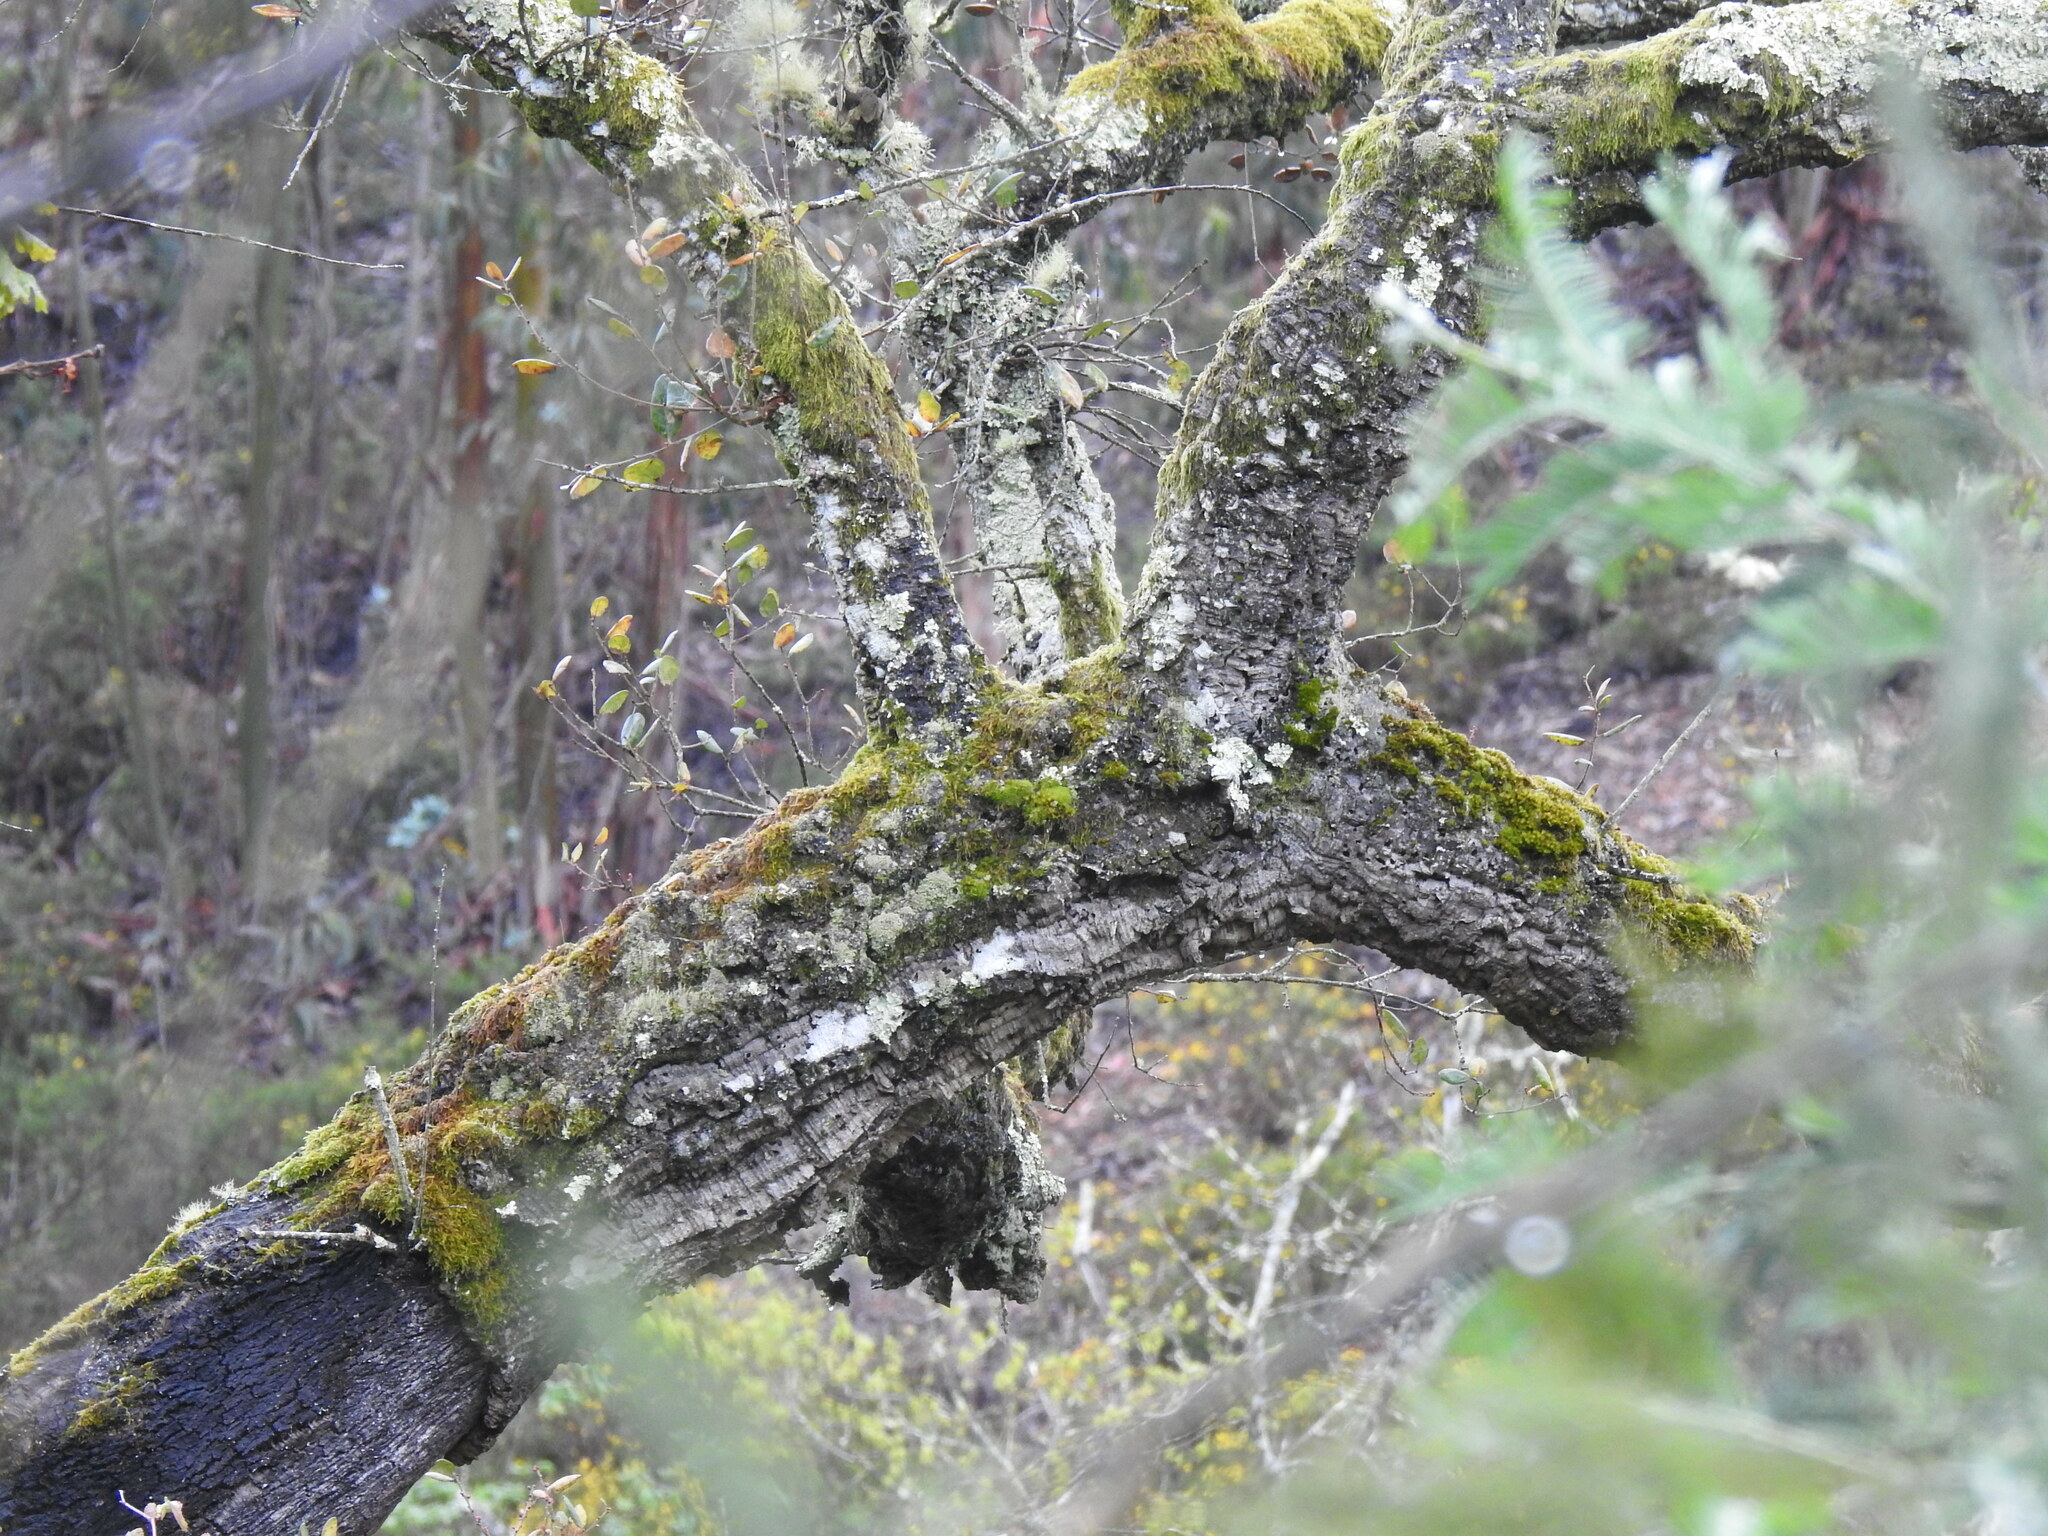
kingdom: Plantae
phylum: Tracheophyta
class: Magnoliopsida
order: Fagales
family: Fagaceae
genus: Quercus
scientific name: Quercus suber
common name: Cork oak
